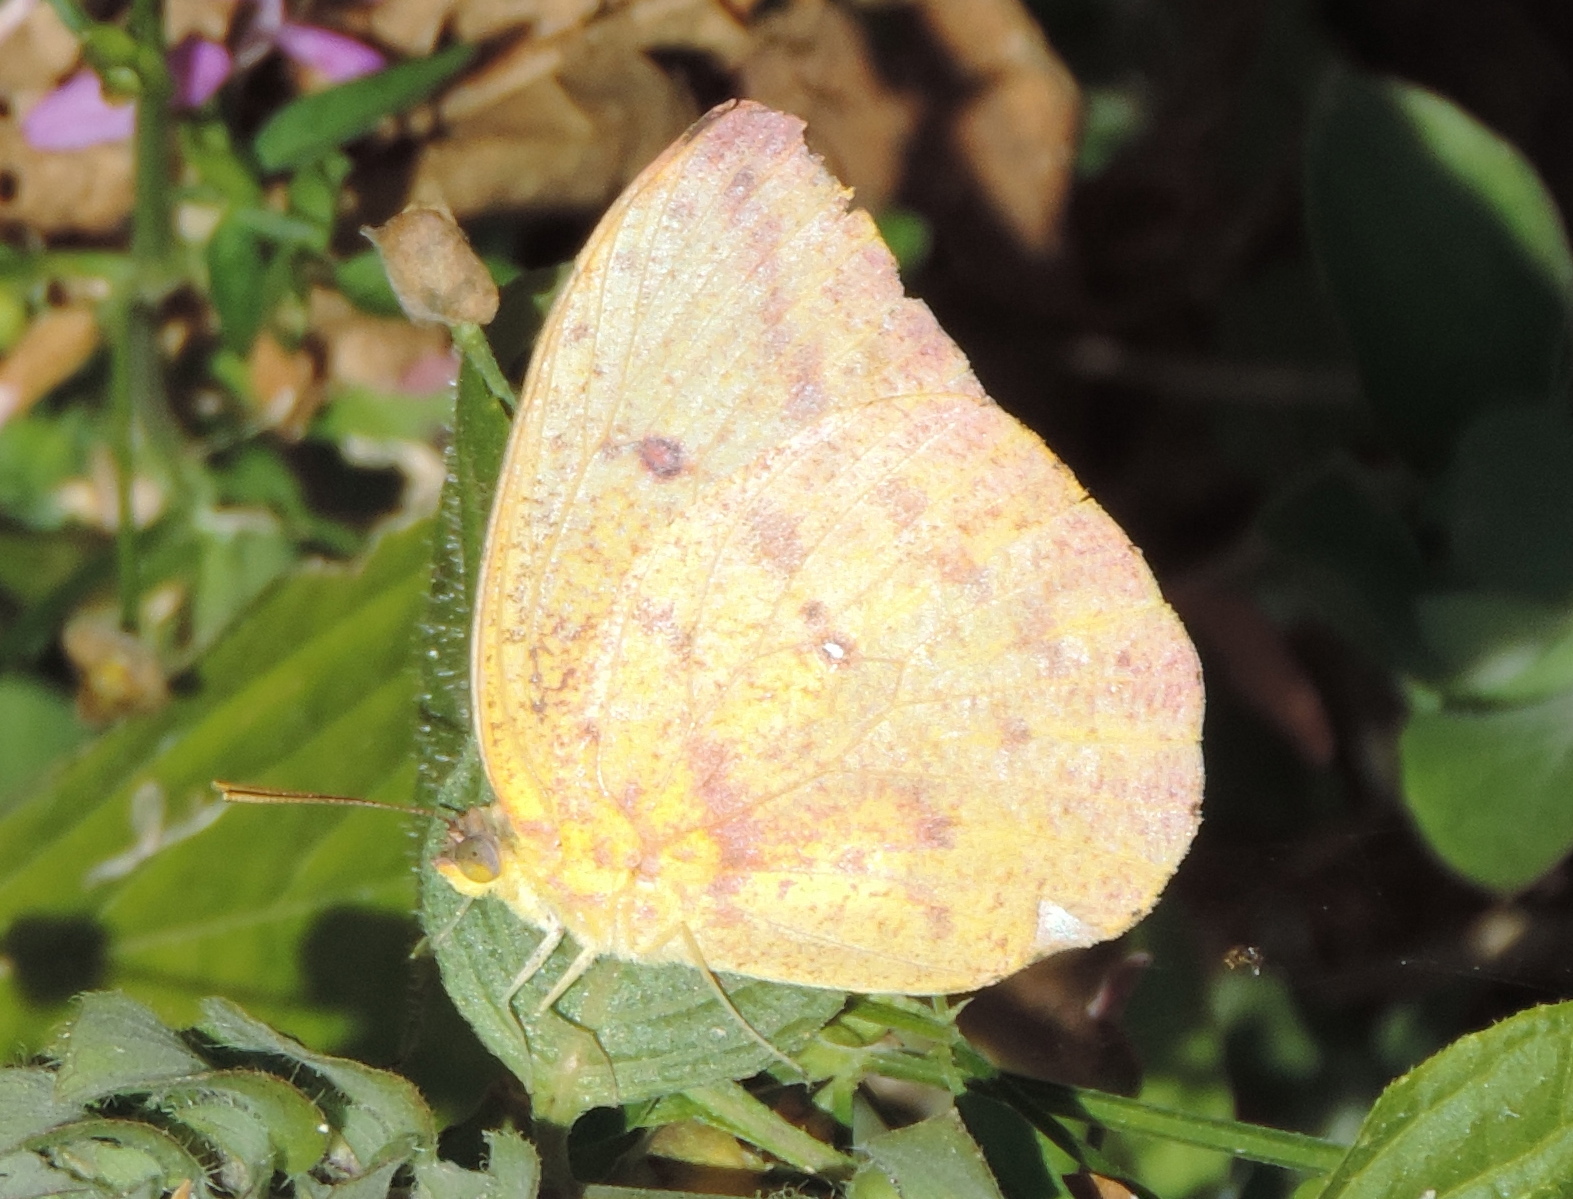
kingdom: Animalia
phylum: Arthropoda
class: Insecta
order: Lepidoptera
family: Pieridae
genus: Phoebis
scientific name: Phoebis agarithe
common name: Large orange sulphur
